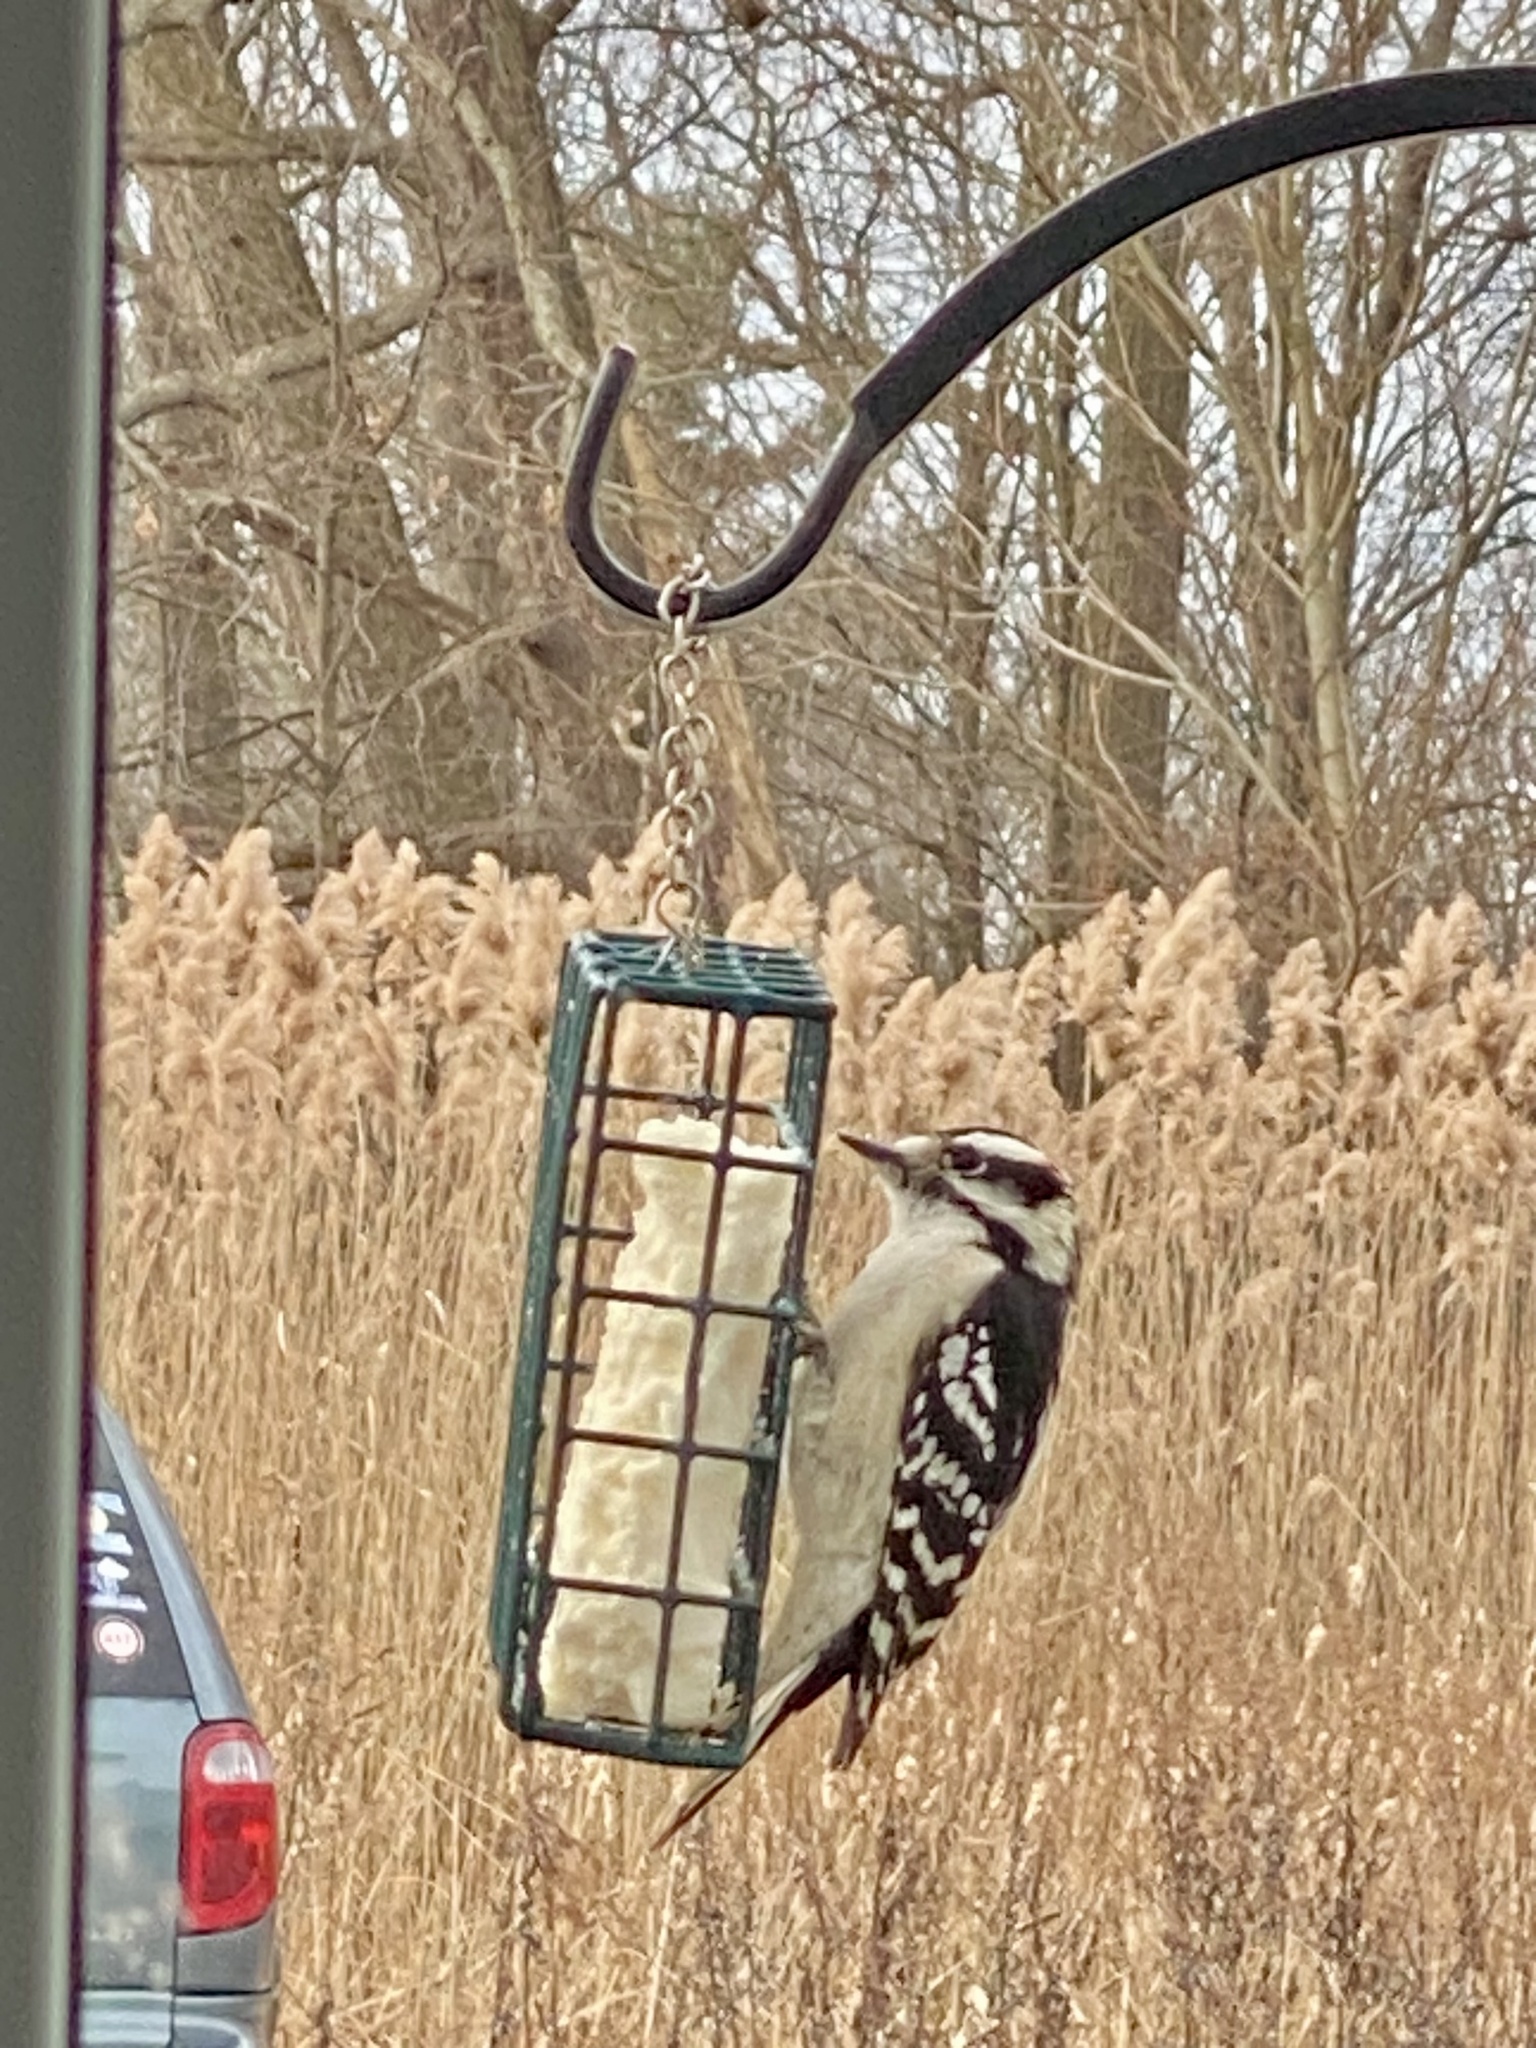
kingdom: Animalia
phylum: Chordata
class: Aves
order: Piciformes
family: Picidae
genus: Dryobates
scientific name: Dryobates pubescens
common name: Downy woodpecker
